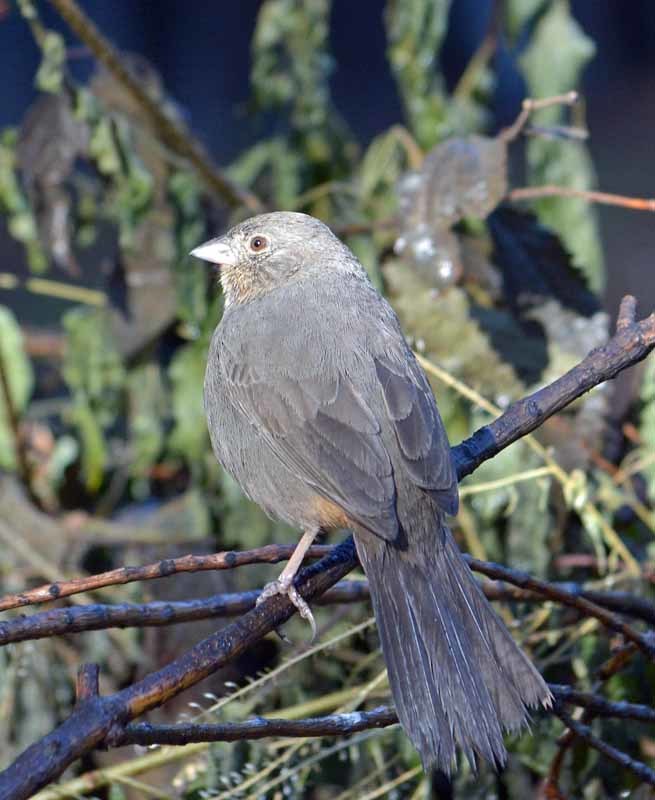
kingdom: Animalia
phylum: Chordata
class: Aves
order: Passeriformes
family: Passerellidae
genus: Melozone
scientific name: Melozone fusca
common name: Canyon towhee
